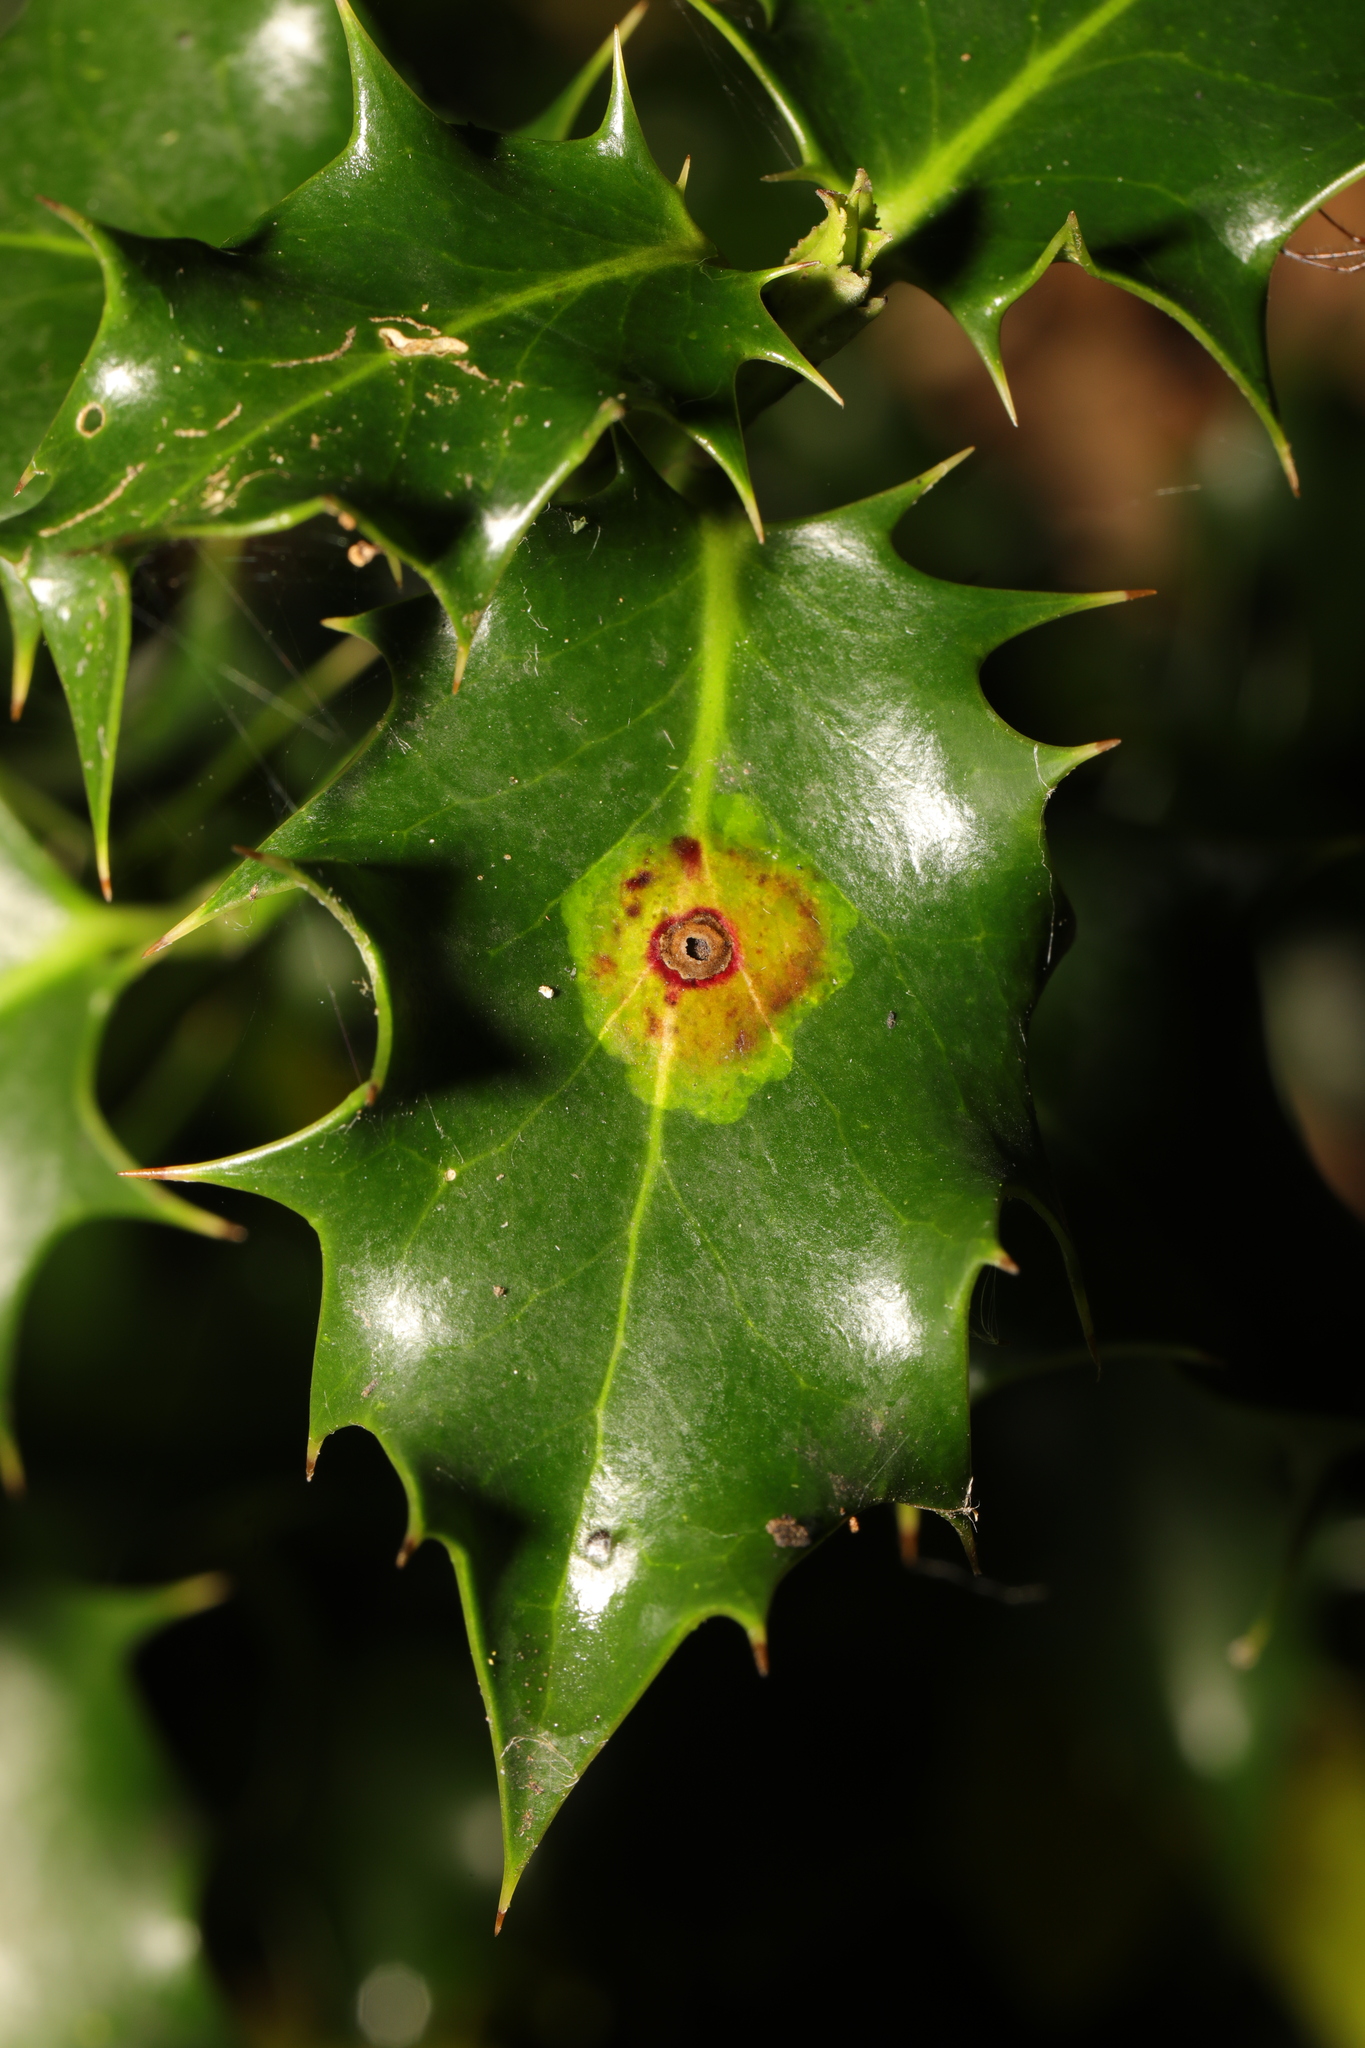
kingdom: Animalia
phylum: Arthropoda
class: Insecta
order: Diptera
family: Agromyzidae
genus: Phytomyza
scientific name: Phytomyza ilicis
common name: Holly leafminer
